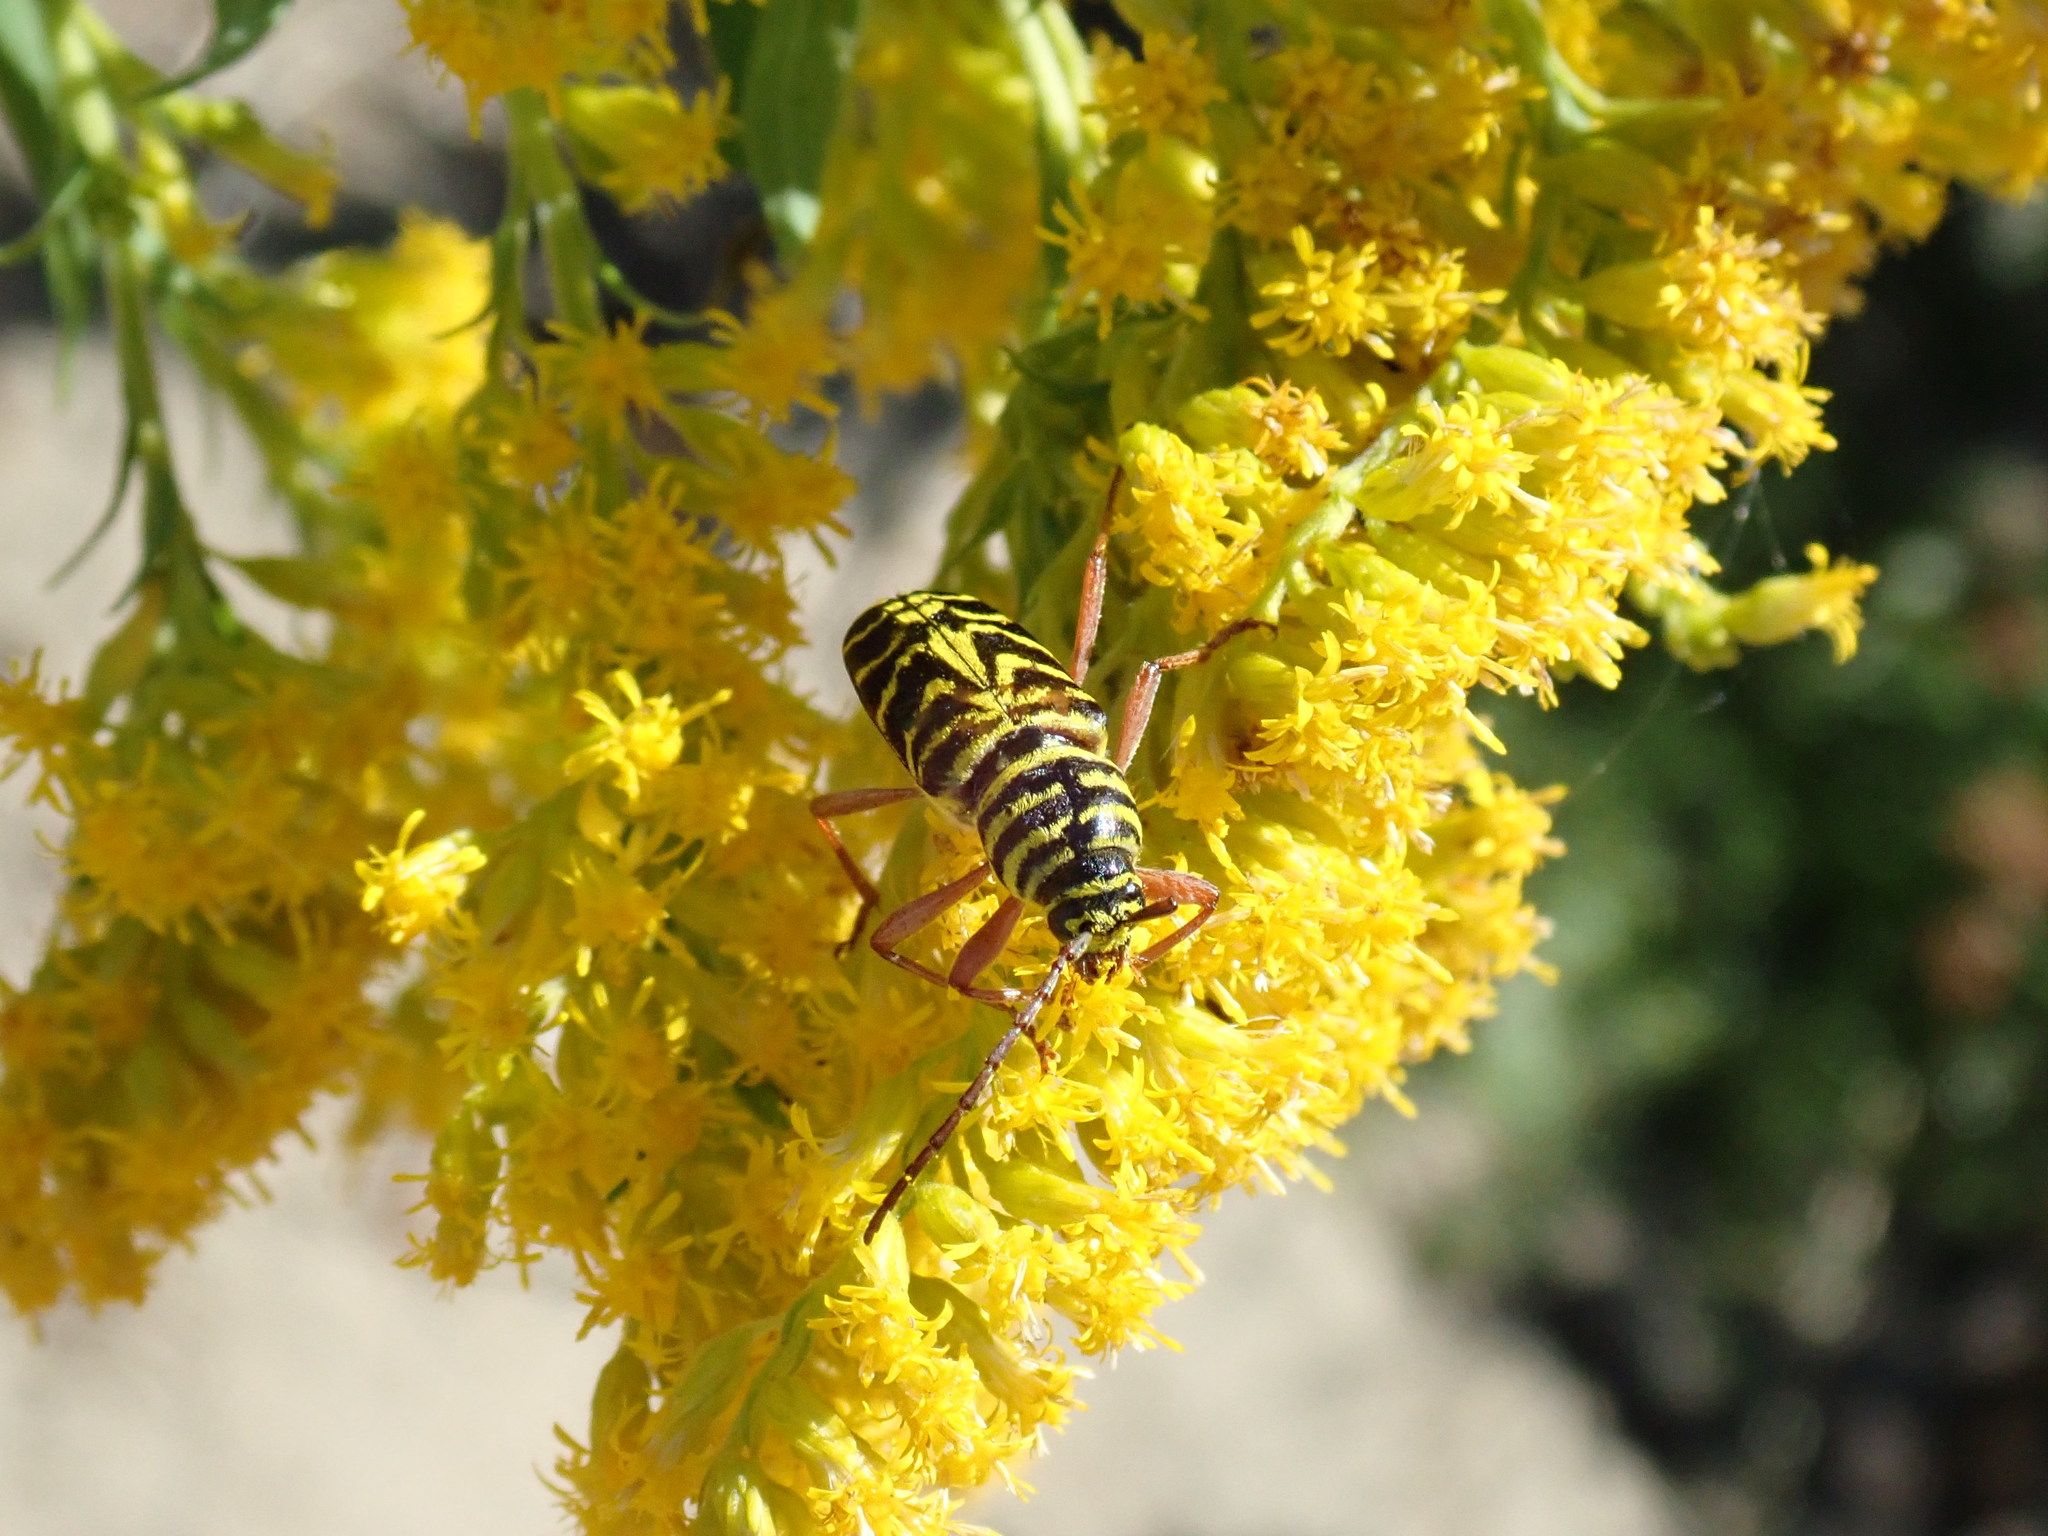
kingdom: Animalia
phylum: Arthropoda
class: Insecta
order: Coleoptera
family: Cerambycidae
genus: Megacyllene
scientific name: Megacyllene robiniae
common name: Locust borer
